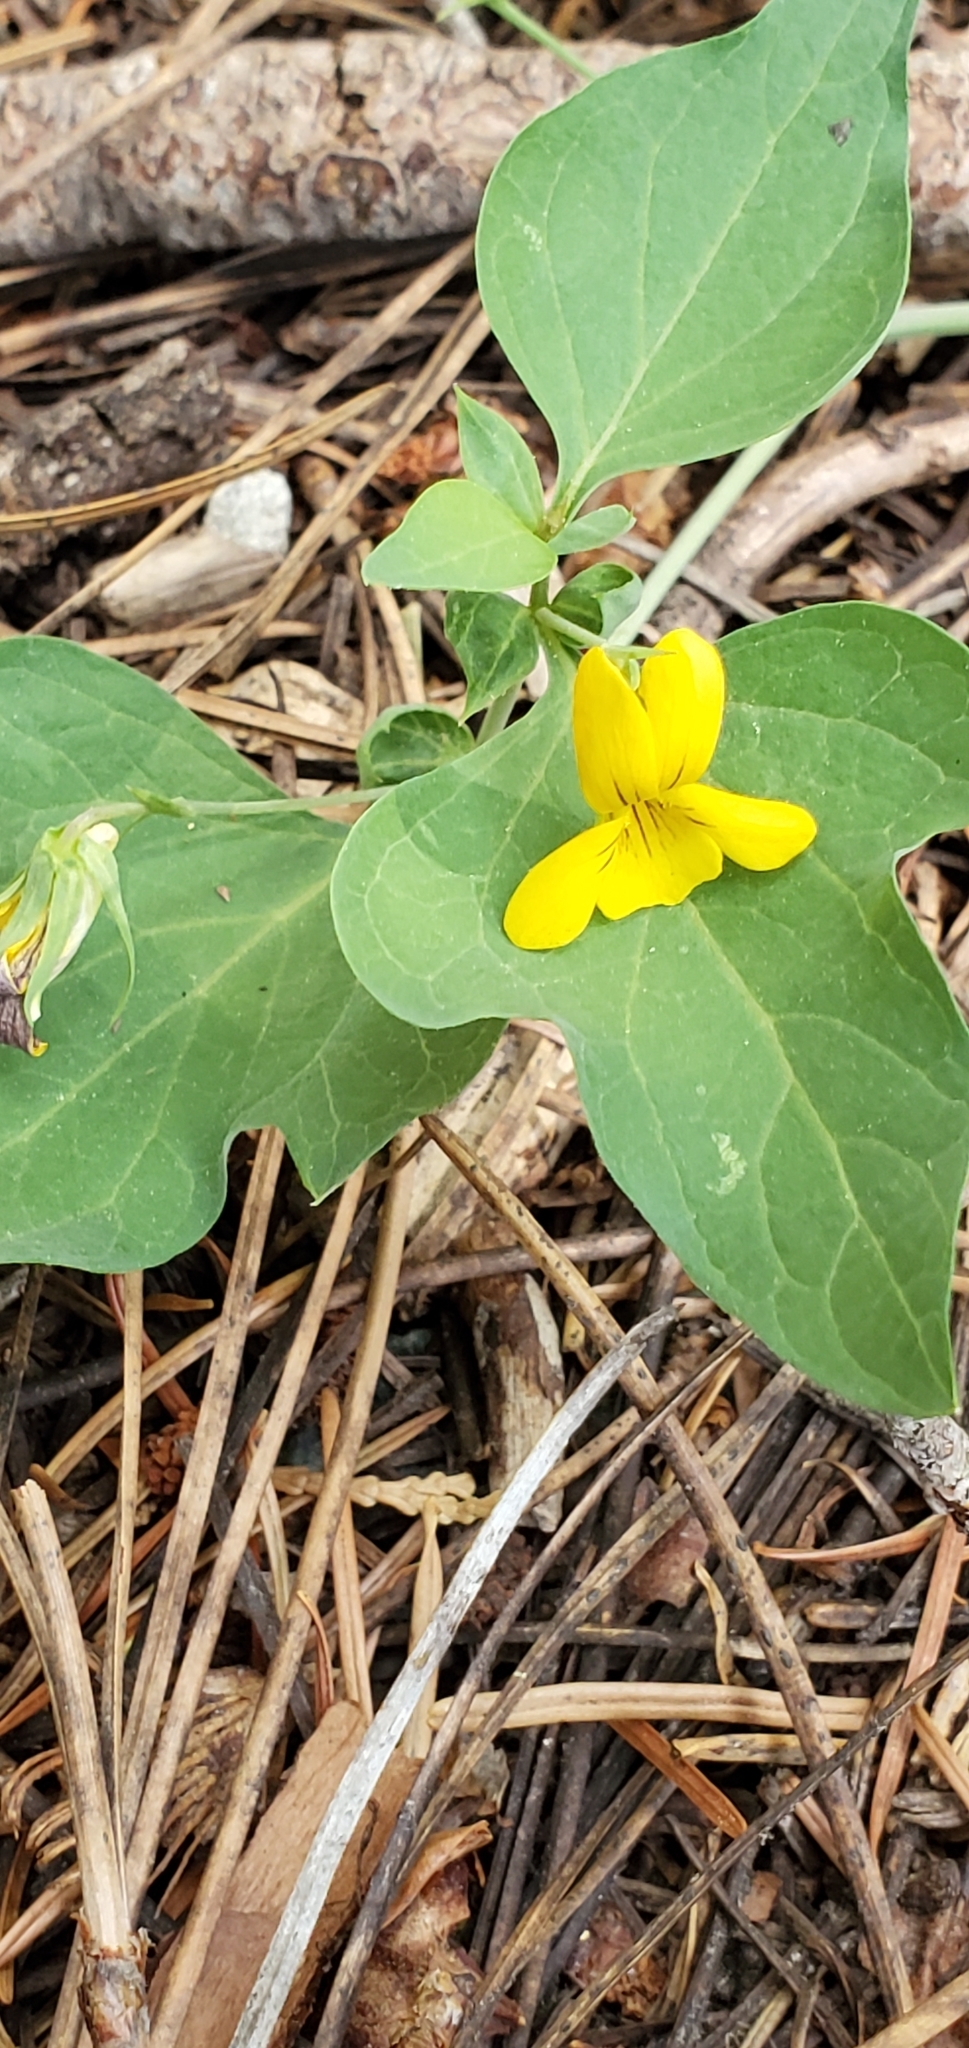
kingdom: Plantae
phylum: Tracheophyta
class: Magnoliopsida
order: Malpighiales
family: Violaceae
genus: Viola
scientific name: Viola lobata
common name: Pine violet
